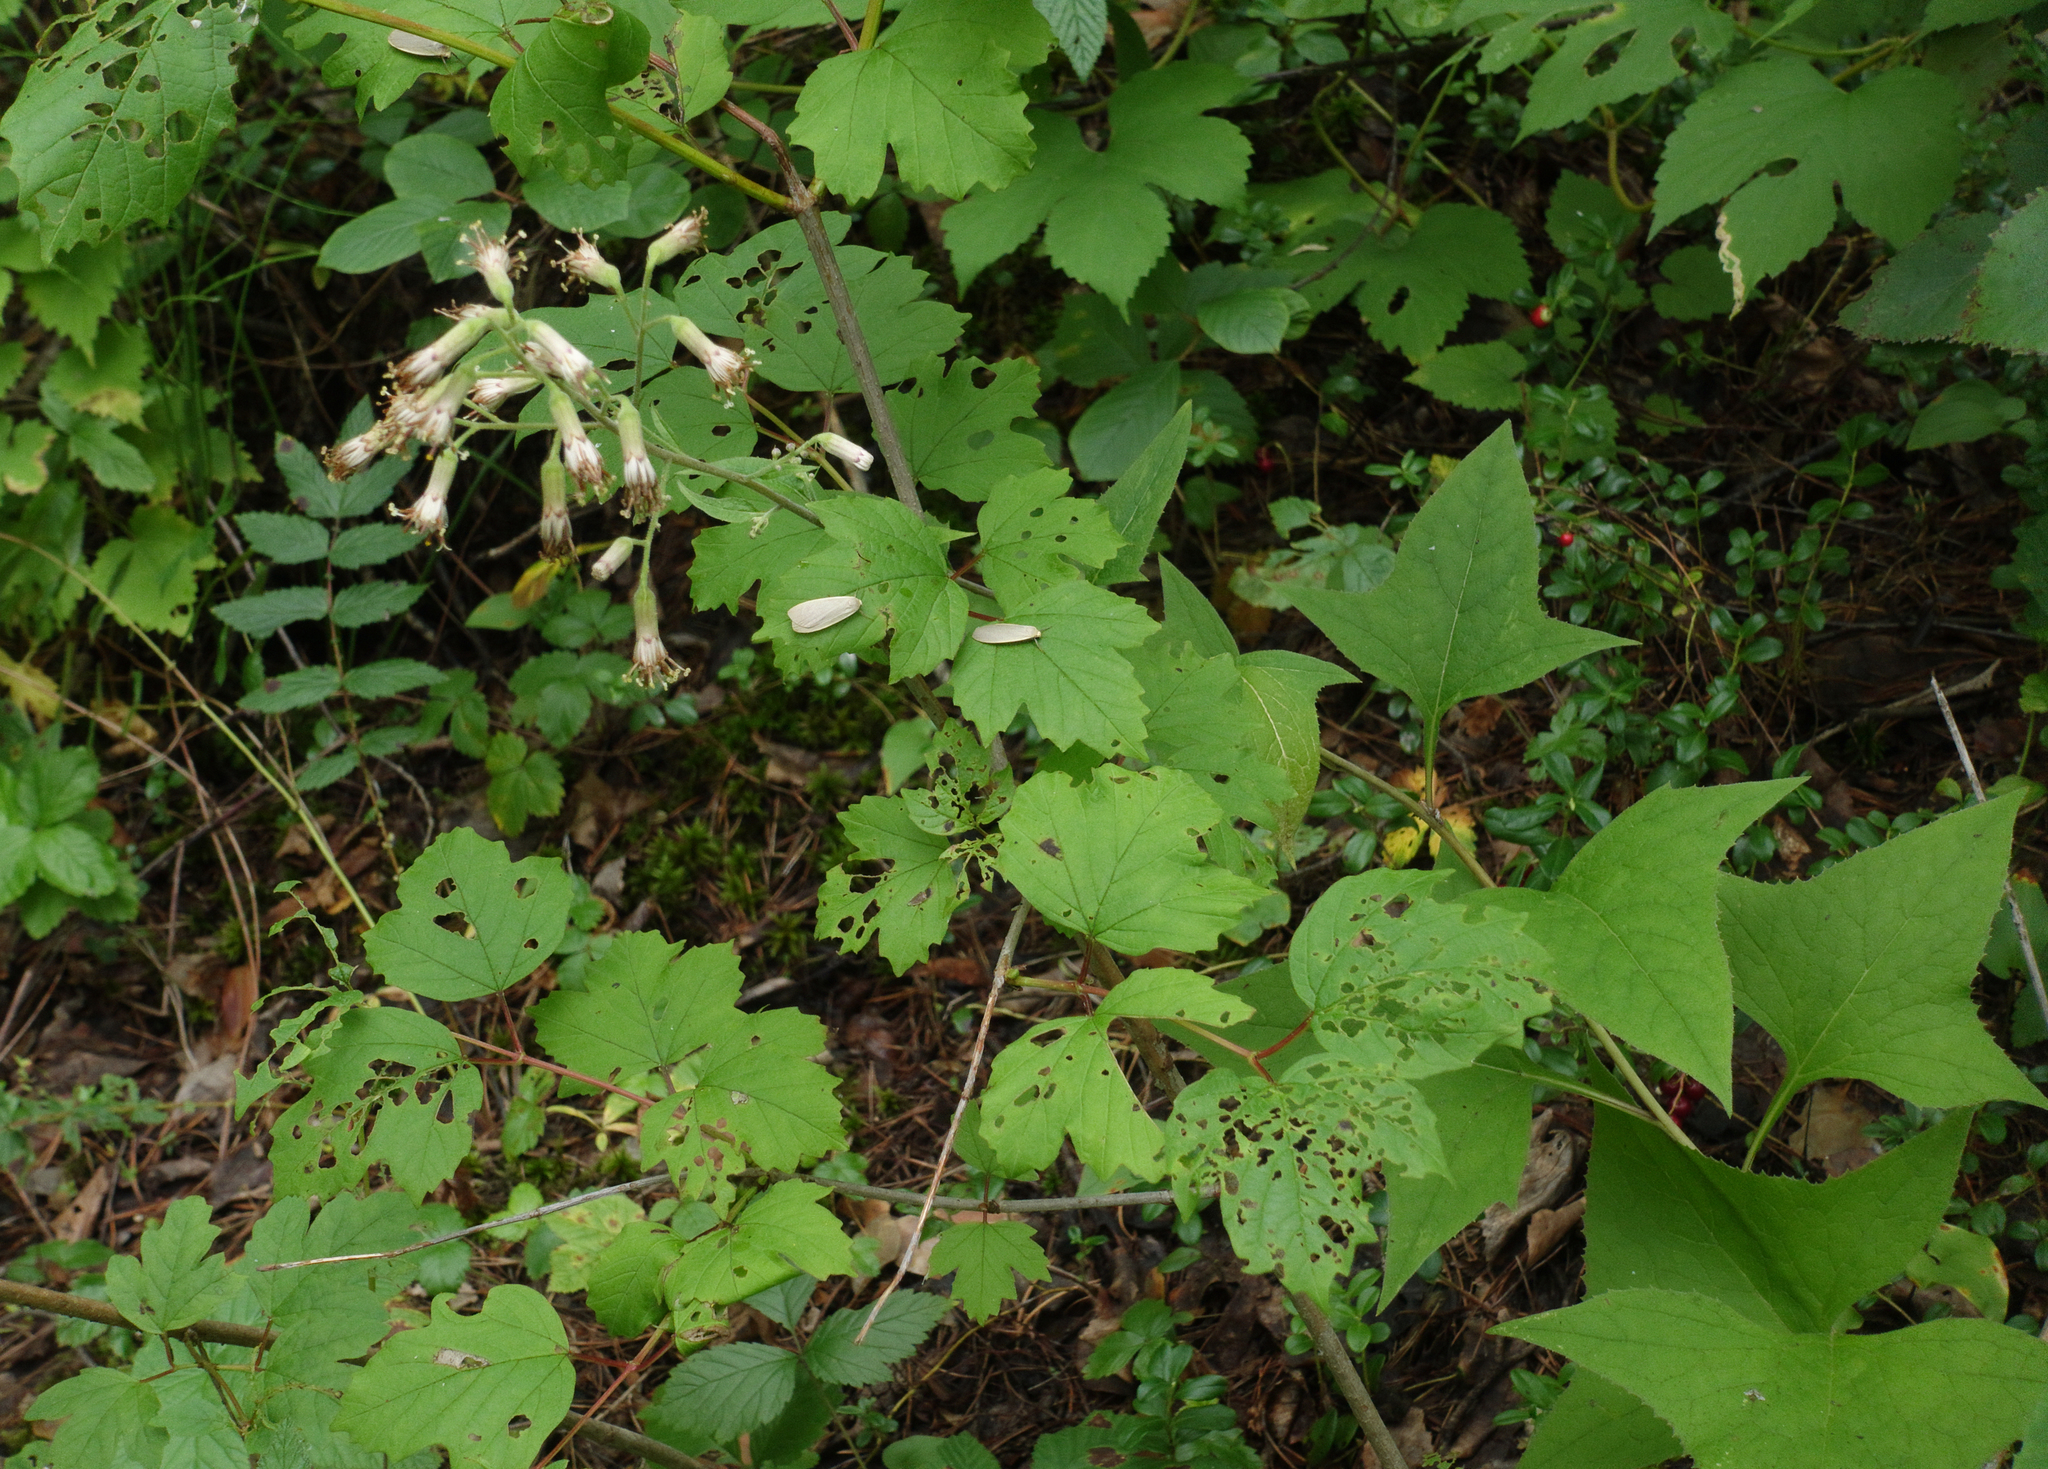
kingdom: Plantae
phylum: Tracheophyta
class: Magnoliopsida
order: Asterales
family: Asteraceae
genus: Parasenecio
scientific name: Parasenecio hastatus
